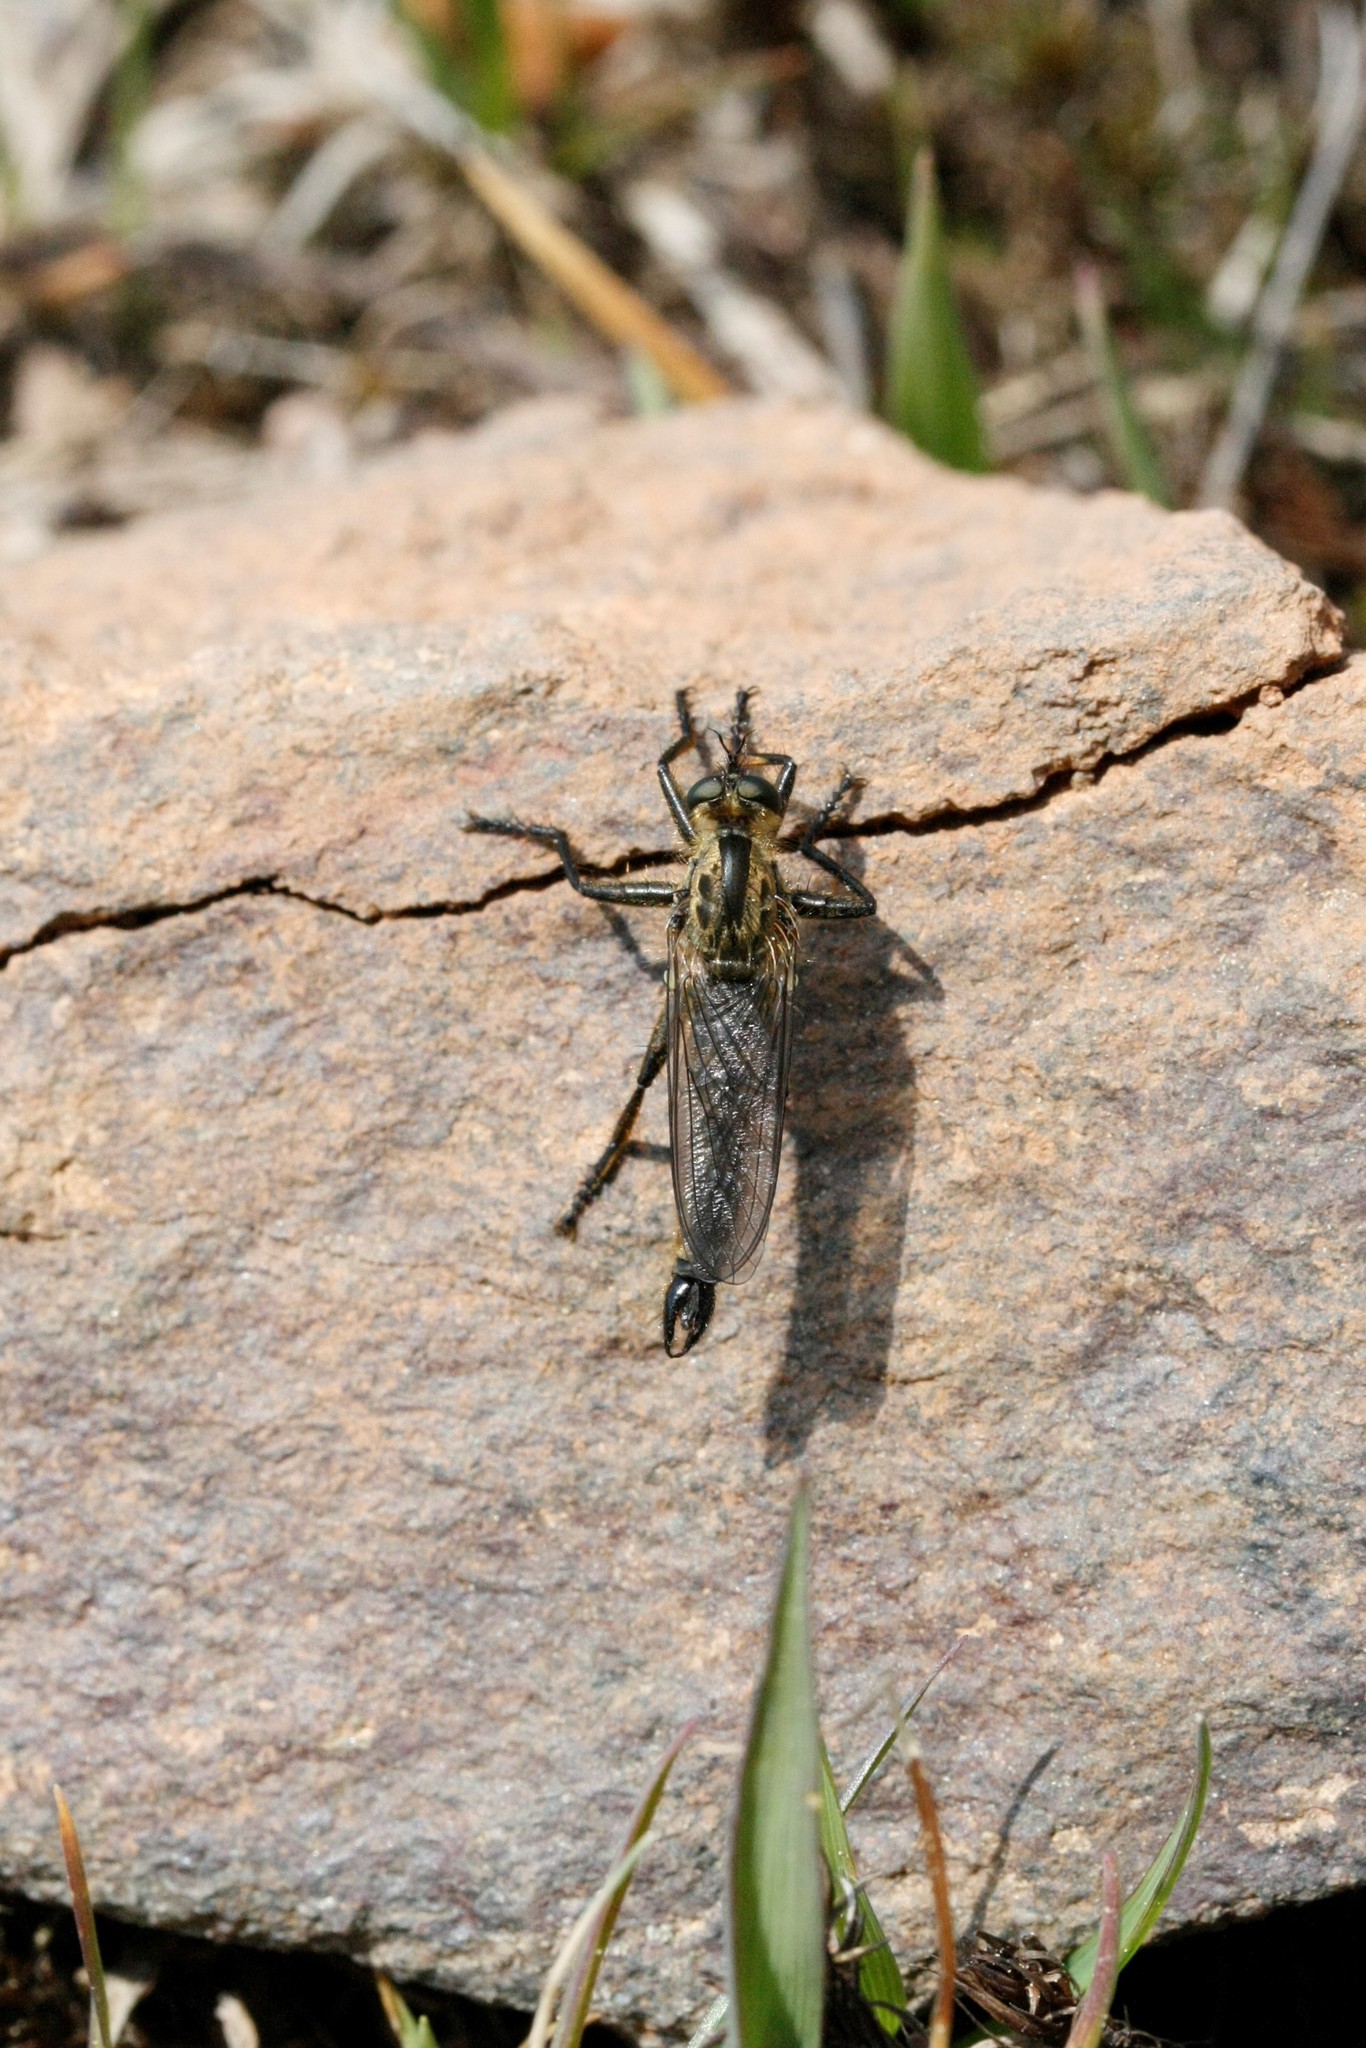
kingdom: Animalia
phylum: Arthropoda
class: Insecta
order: Diptera
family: Asilidae
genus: Didysmachus
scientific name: Didysmachus picipes
